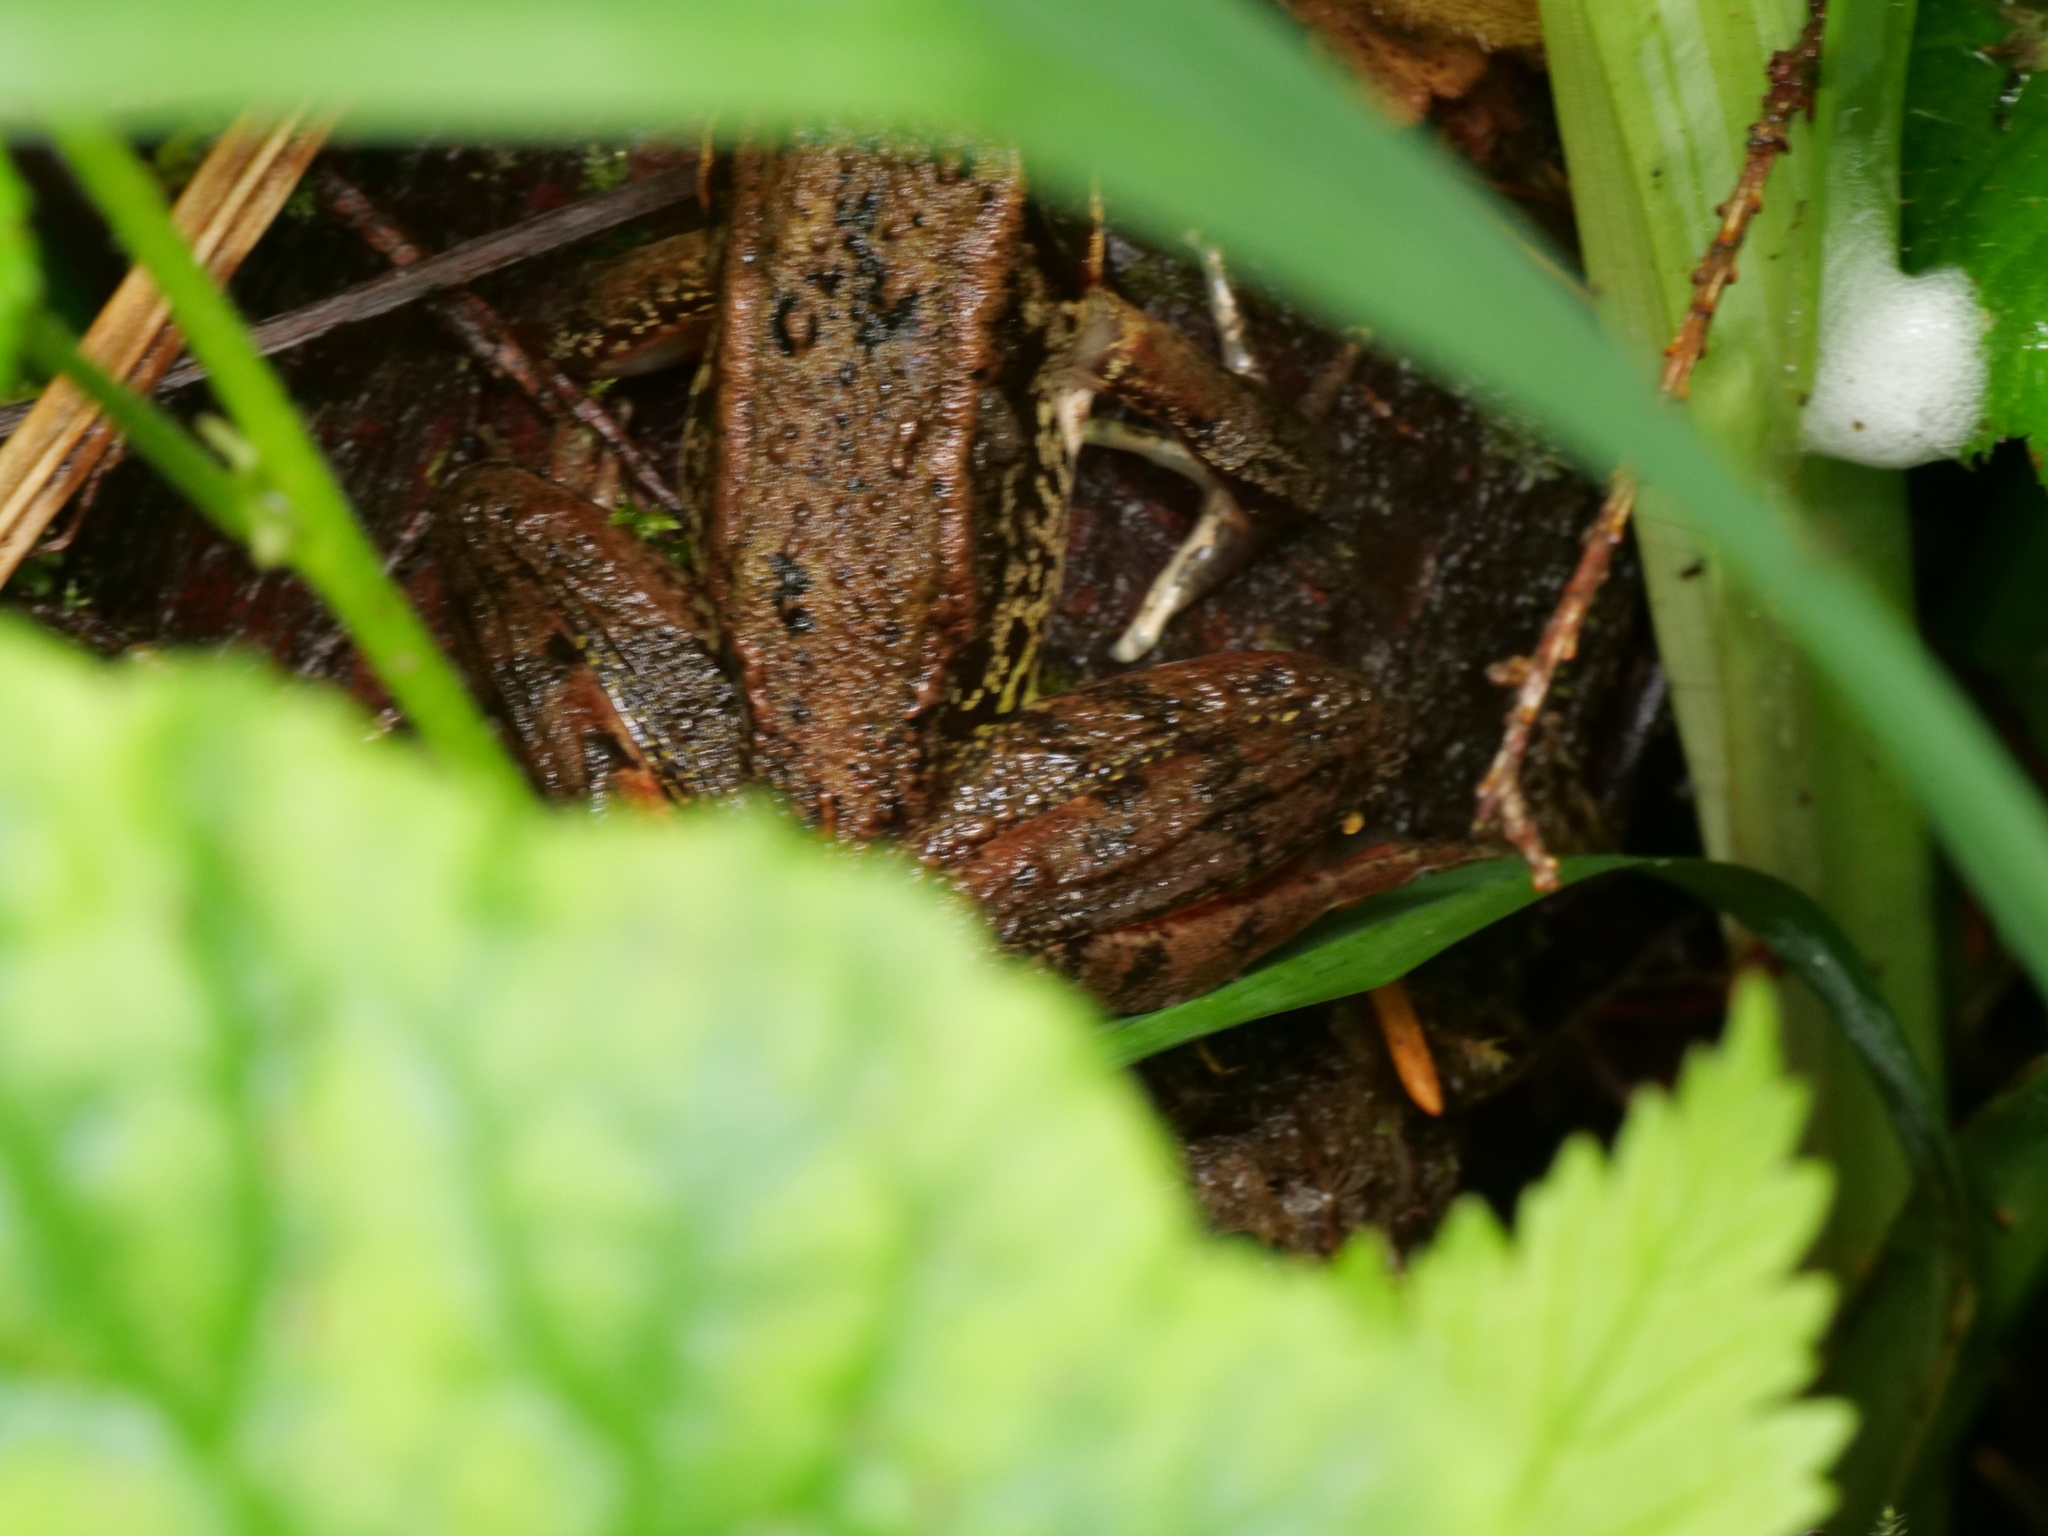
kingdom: Animalia
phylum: Chordata
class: Amphibia
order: Anura
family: Ranidae
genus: Rana
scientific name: Rana aurora
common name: Red-legged frog
